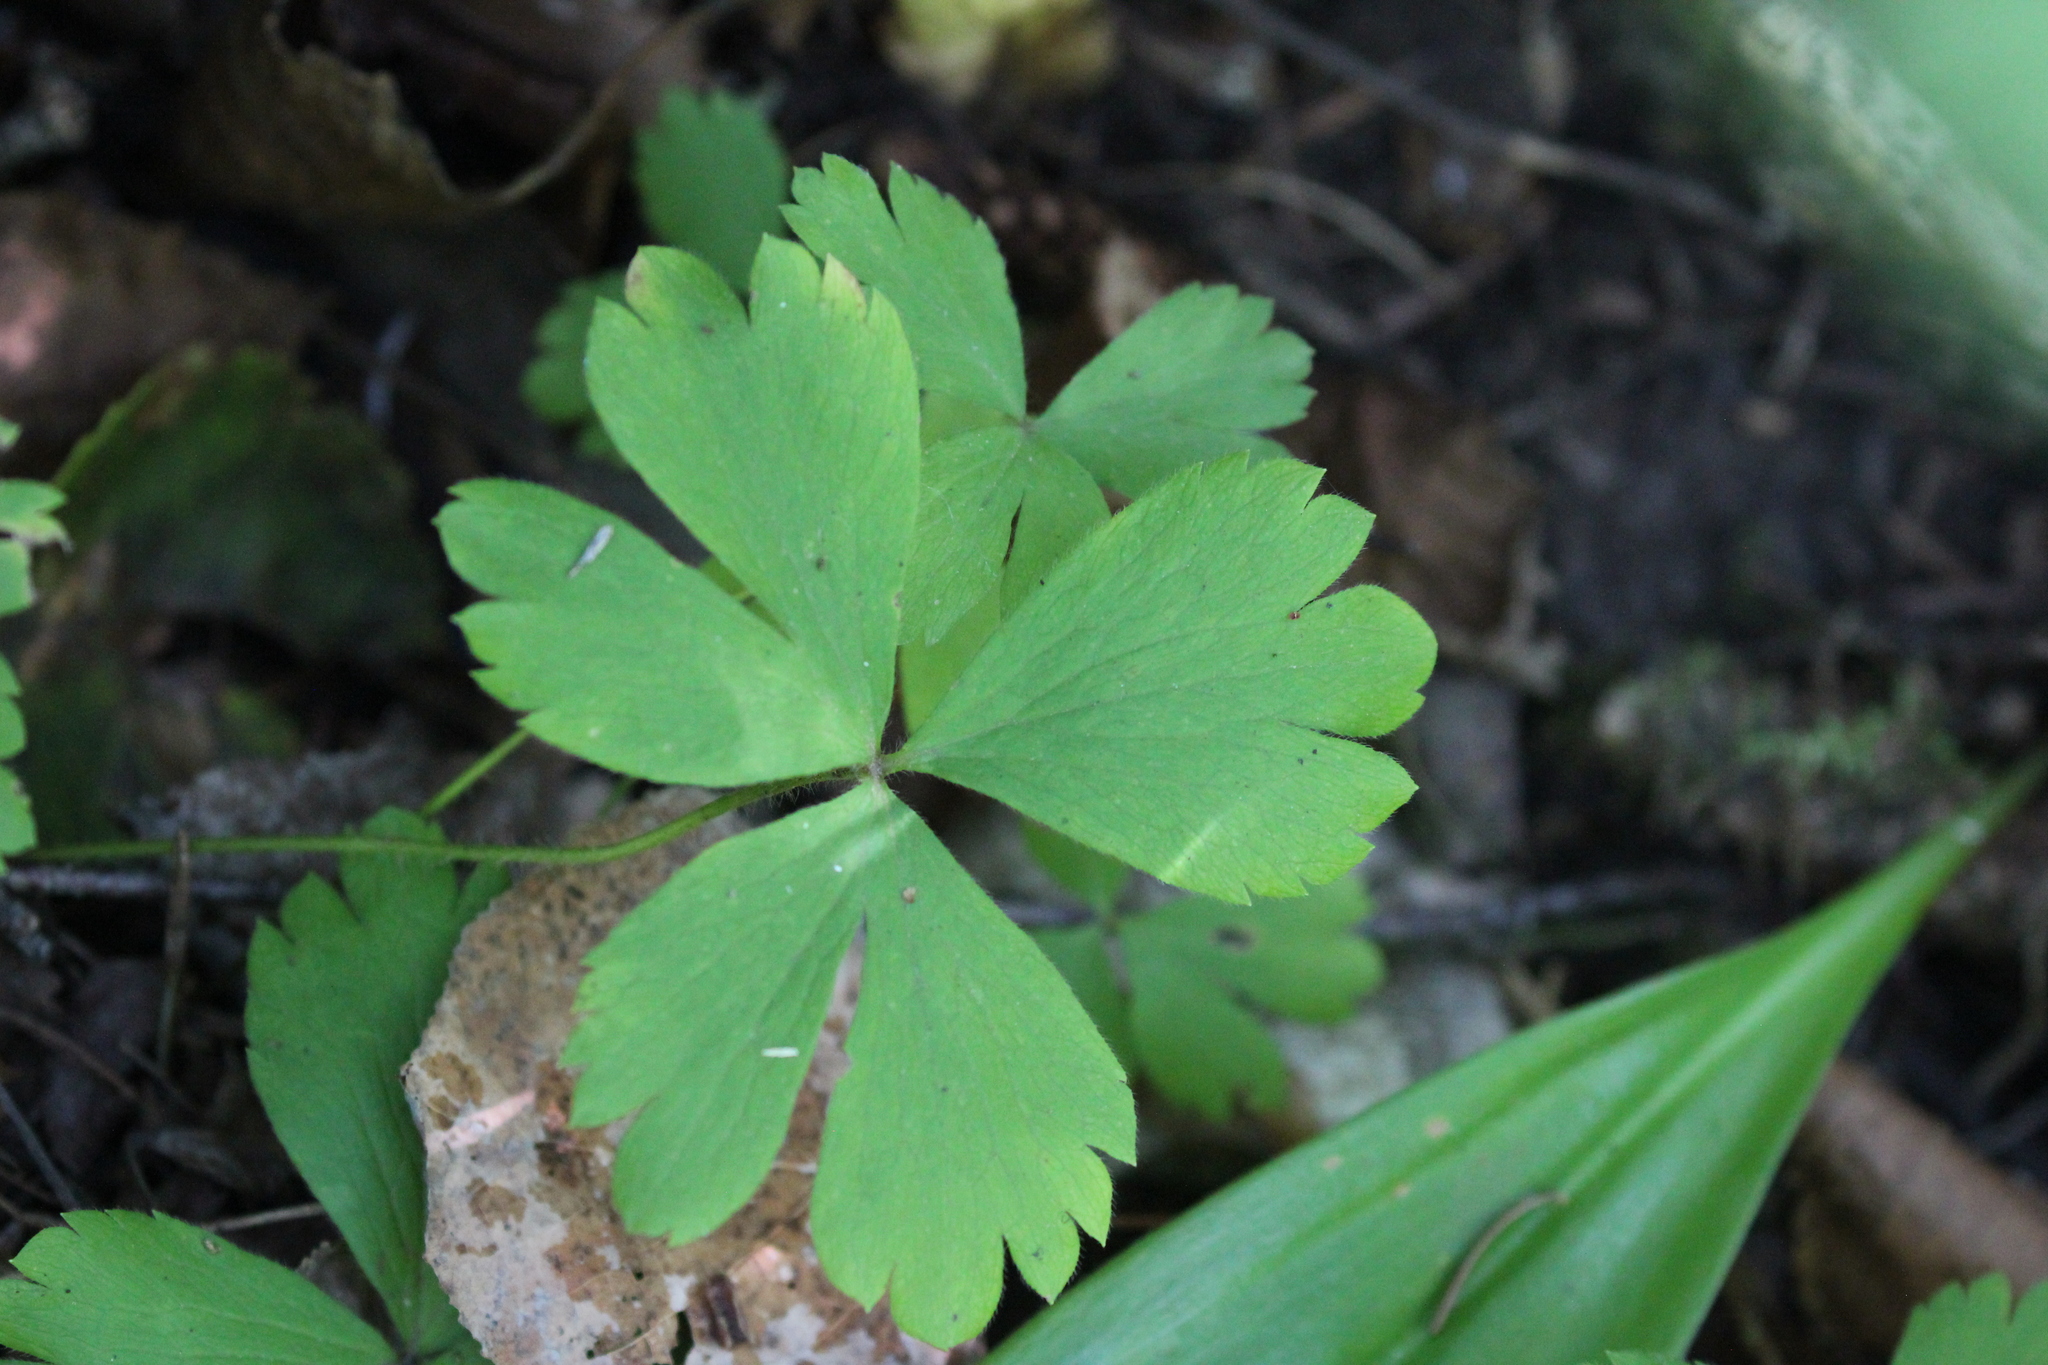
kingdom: Plantae
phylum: Tracheophyta
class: Magnoliopsida
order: Ranunculales
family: Ranunculaceae
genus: Anemone
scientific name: Anemone quinquefolia
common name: Wood anemone
